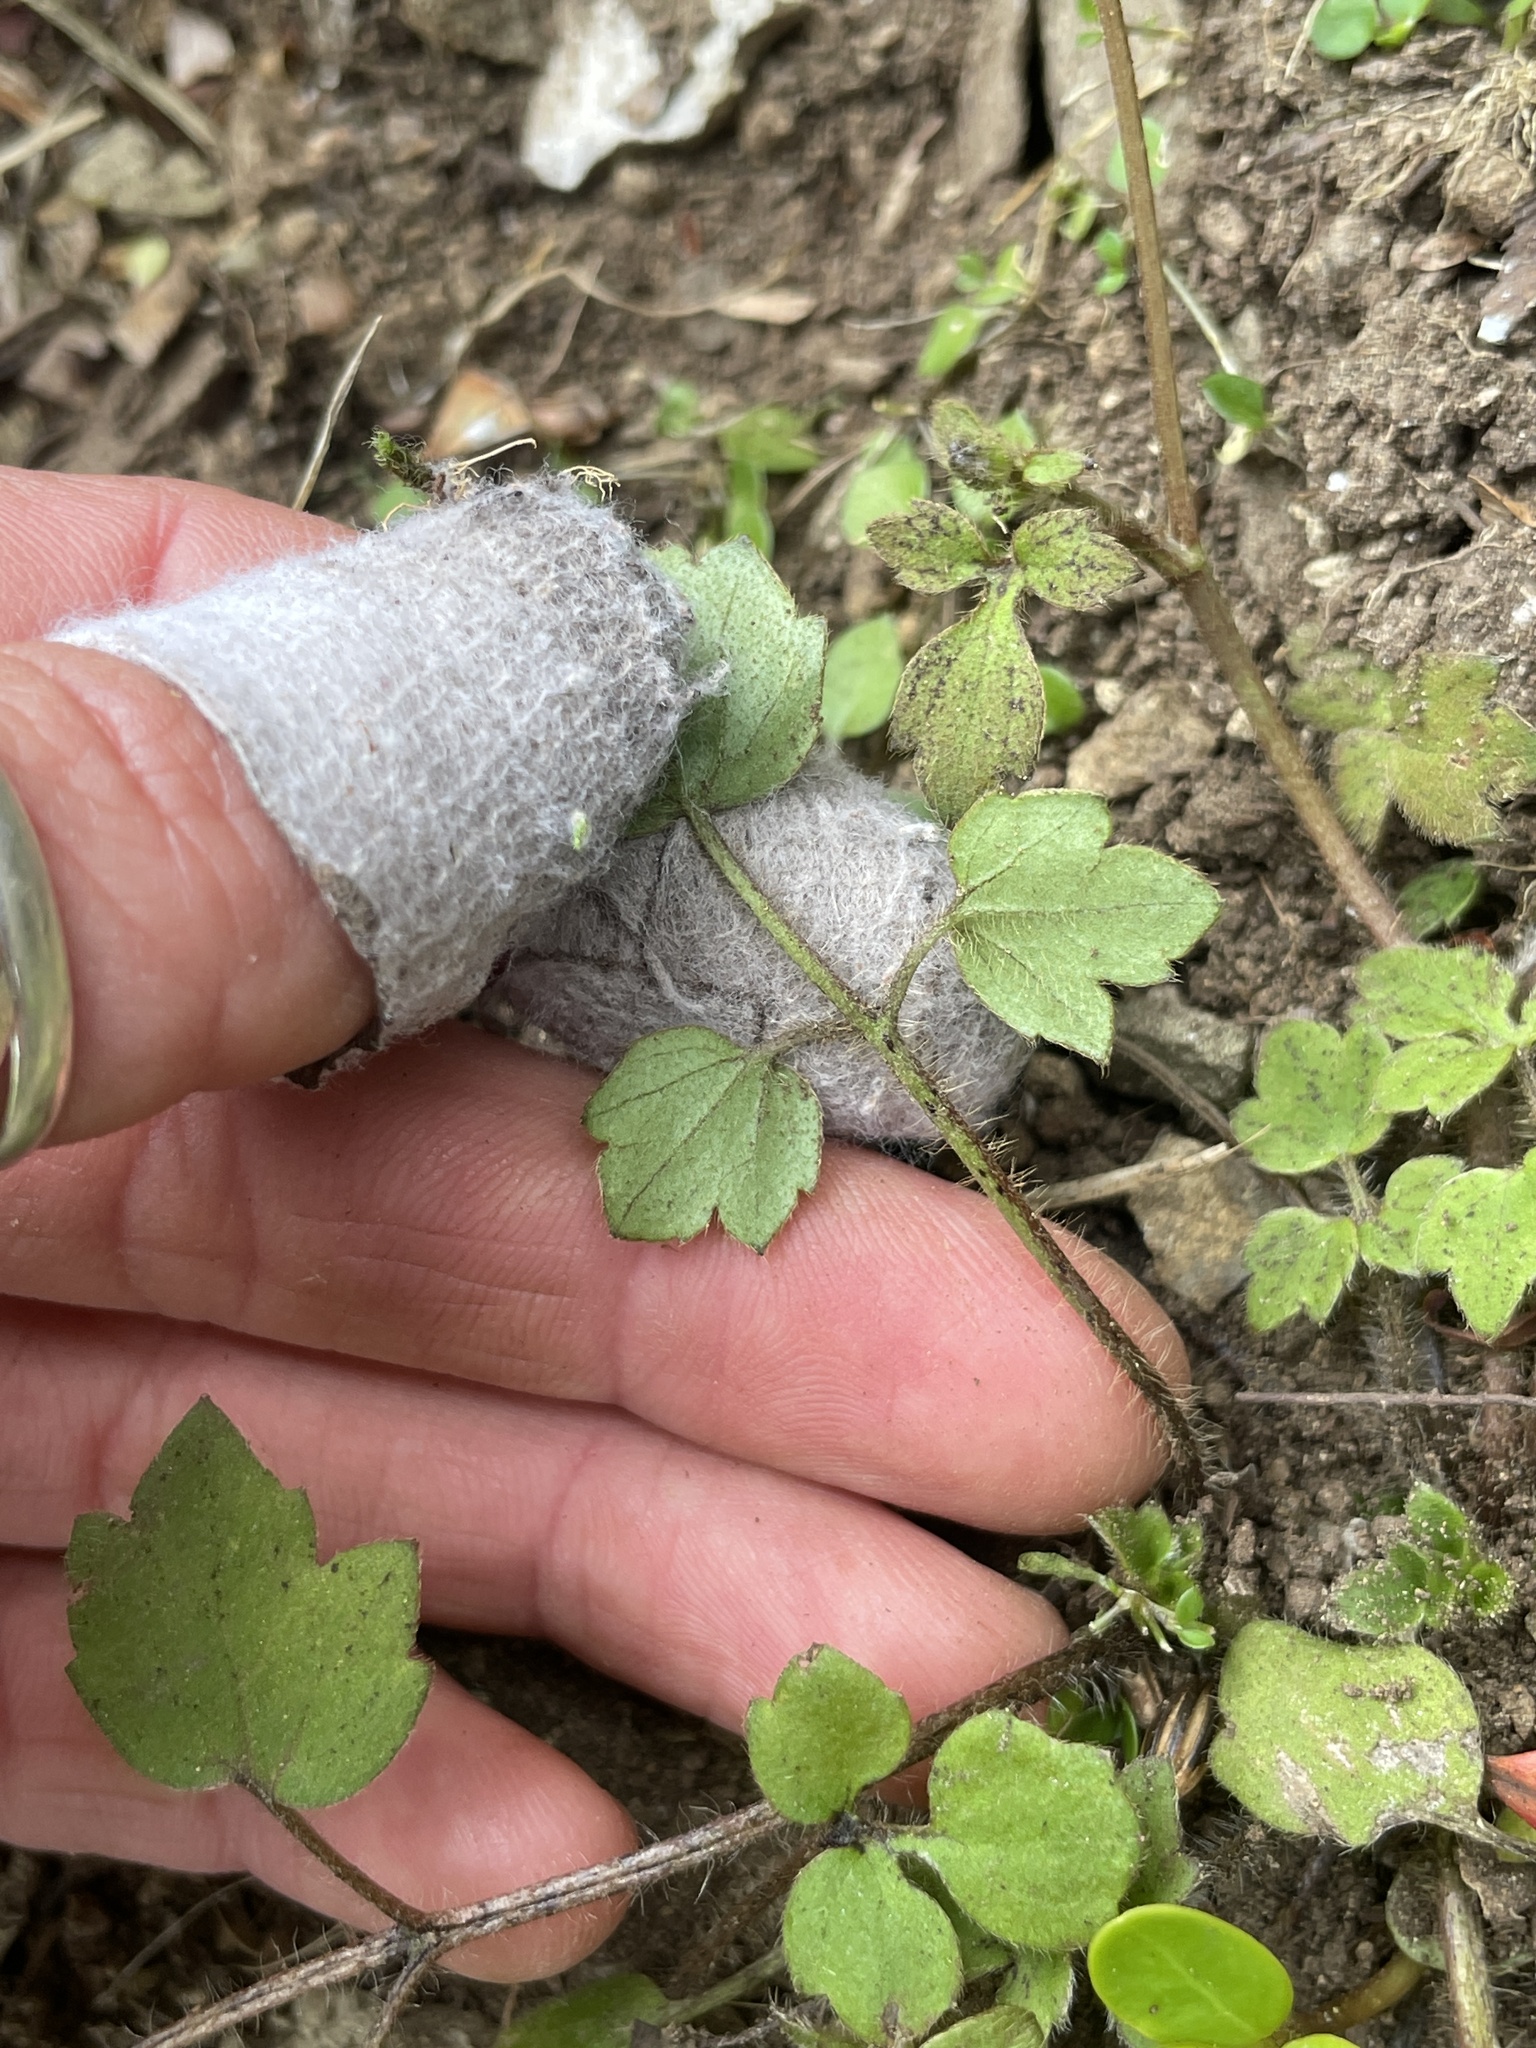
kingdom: Plantae
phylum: Tracheophyta
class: Magnoliopsida
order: Ranunculales
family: Ranunculaceae
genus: Ranunculus
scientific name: Ranunculus reflexus
